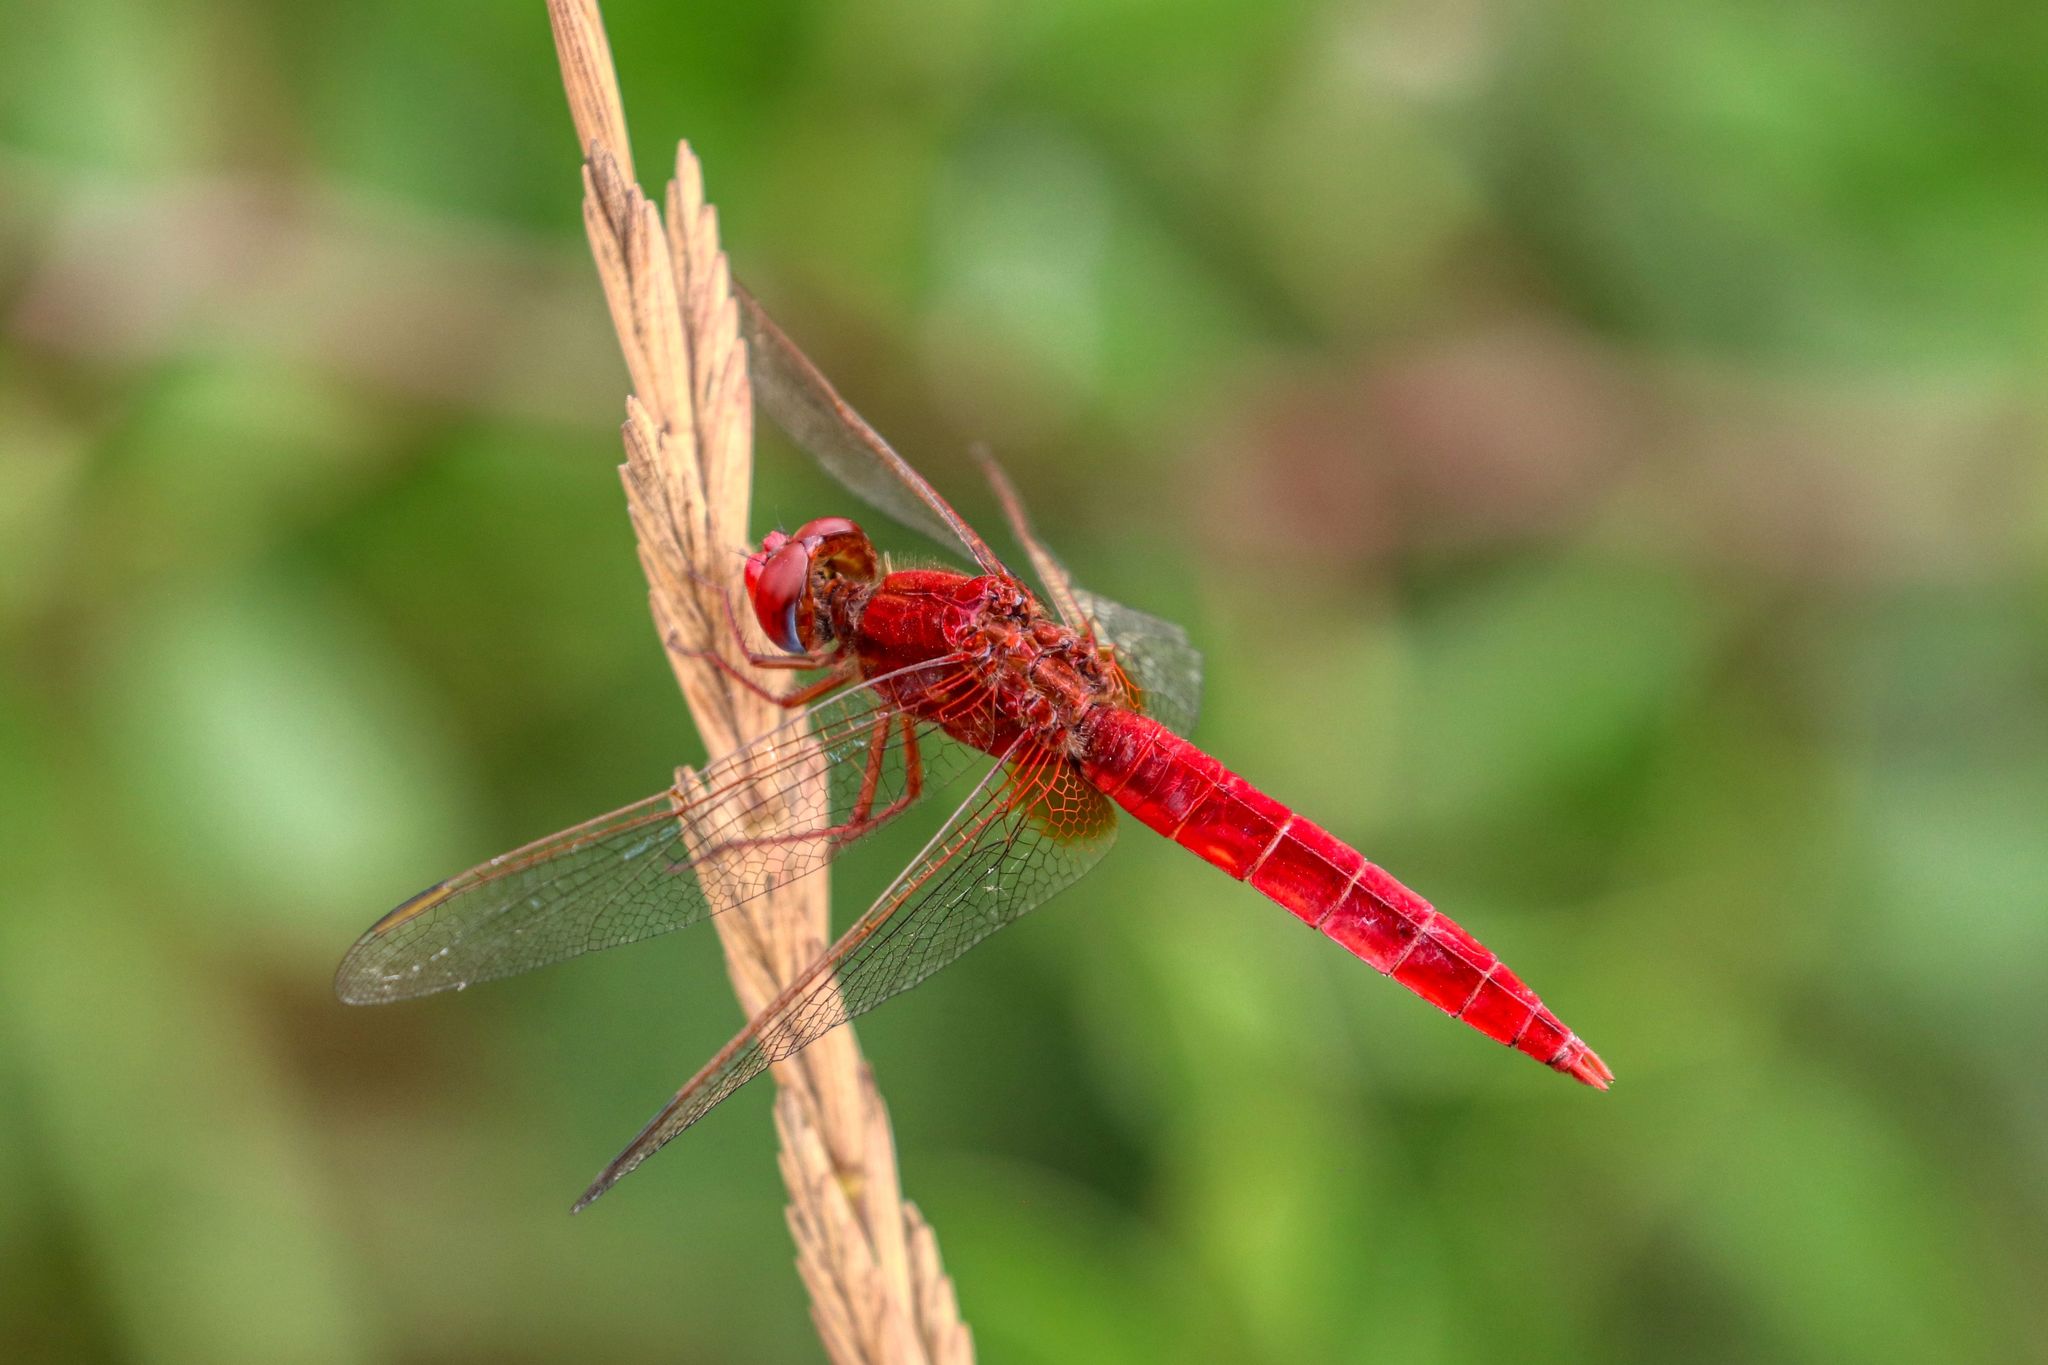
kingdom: Animalia
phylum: Arthropoda
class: Insecta
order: Odonata
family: Libellulidae
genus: Crocothemis
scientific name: Crocothemis erythraea
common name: Scarlet dragonfly
